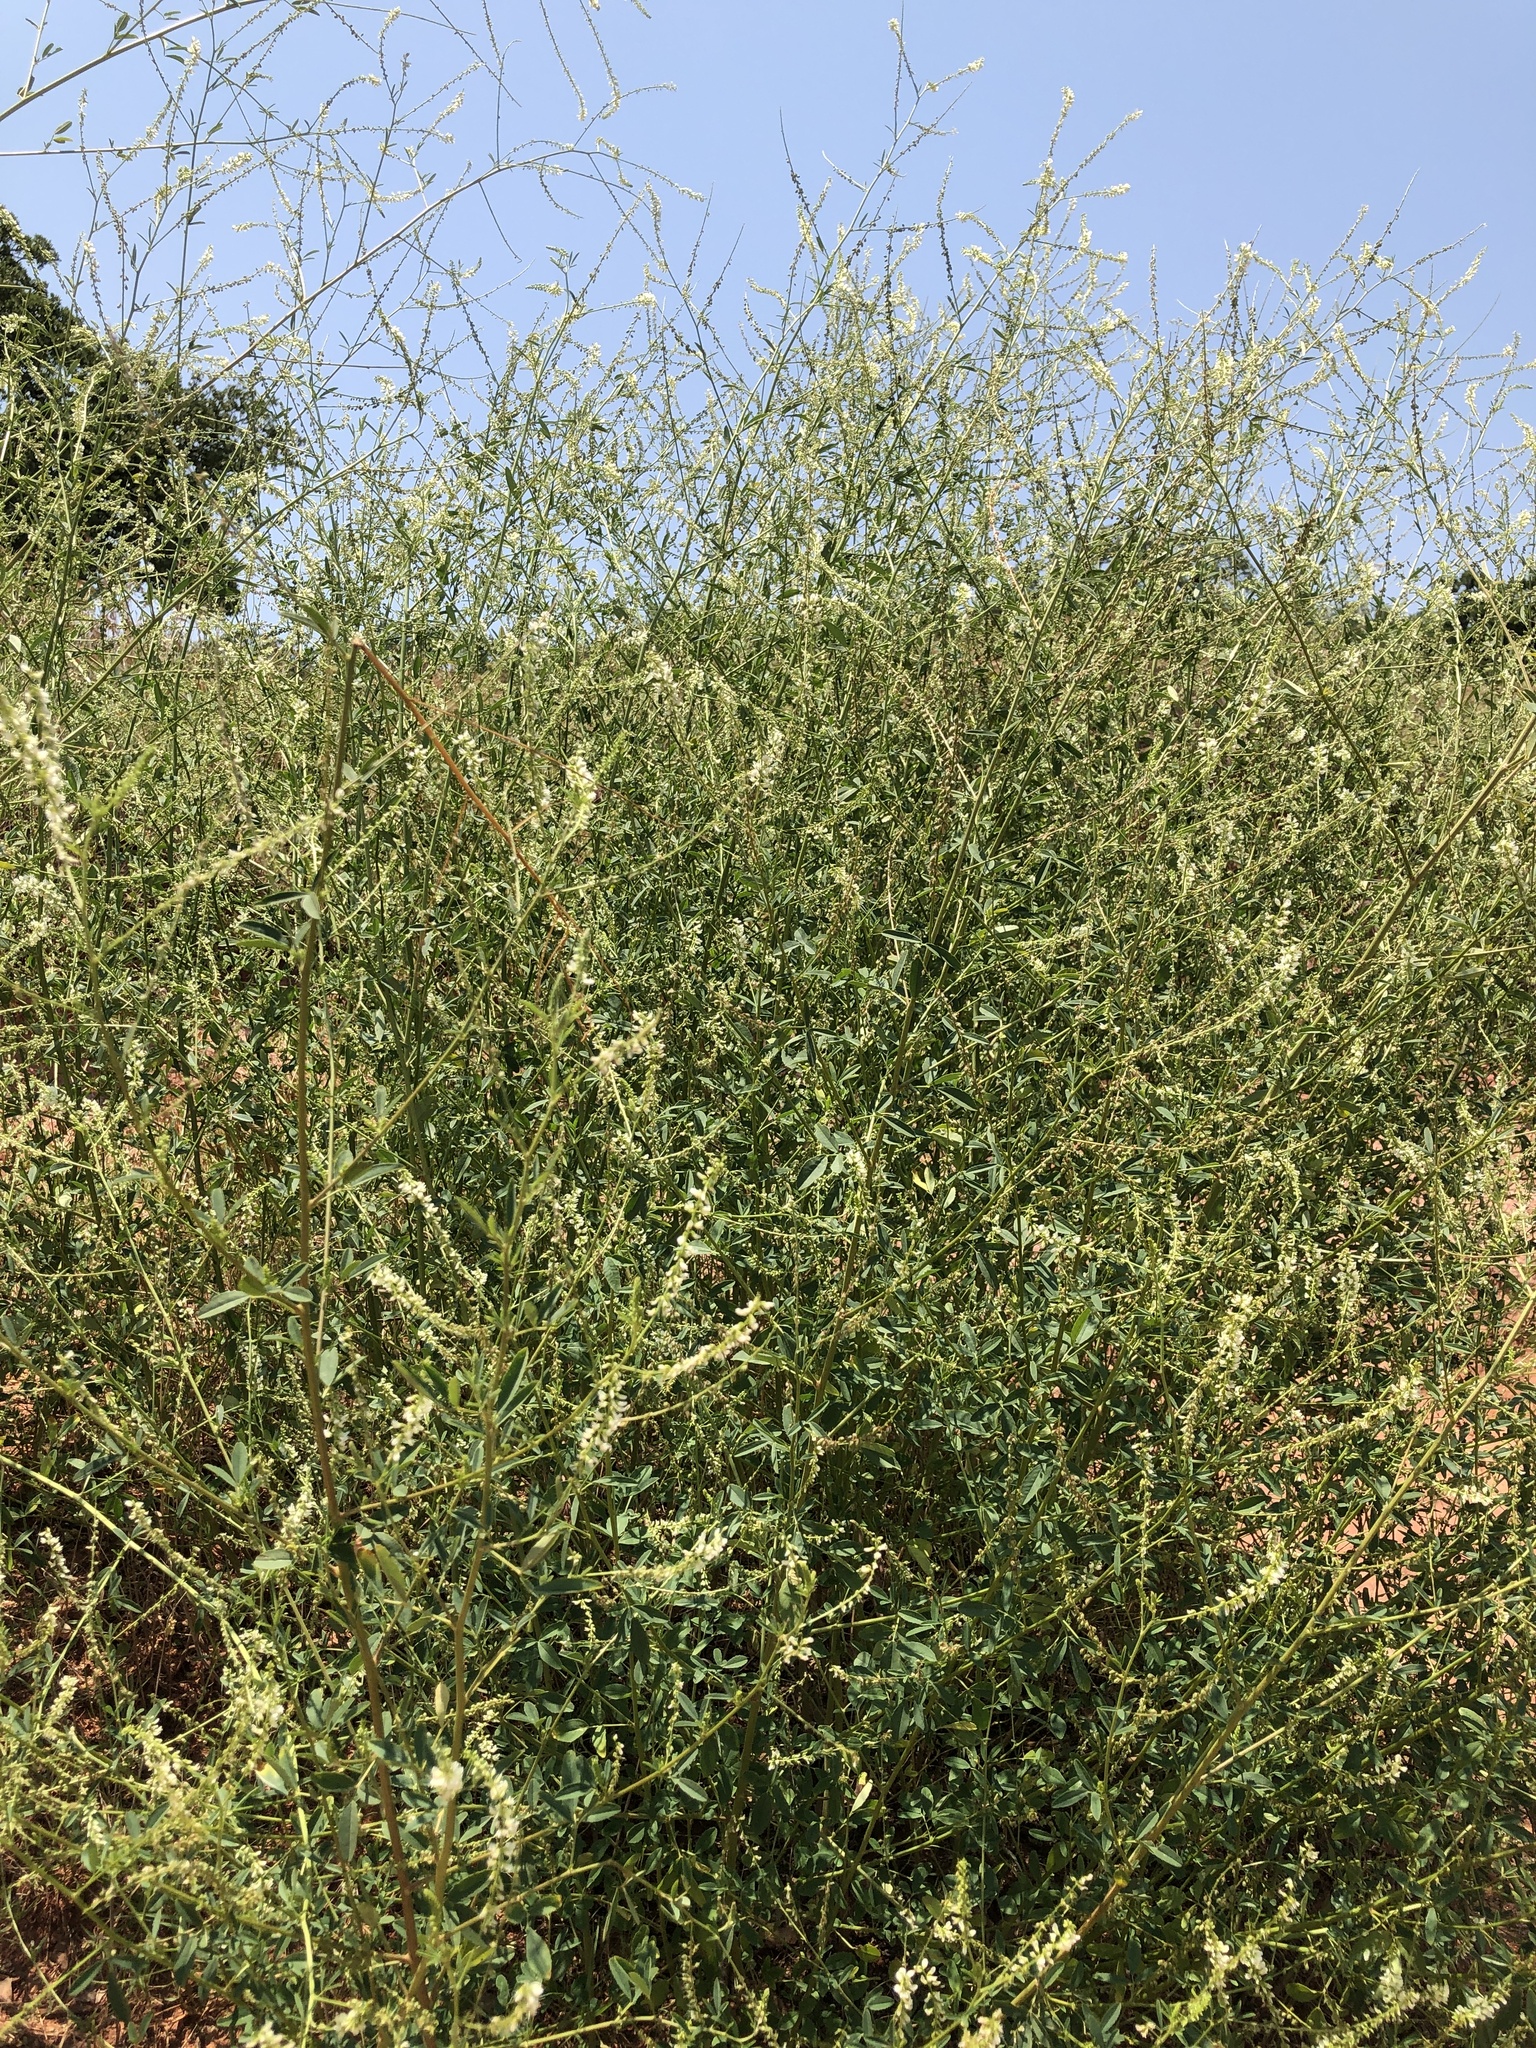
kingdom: Plantae
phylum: Tracheophyta
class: Magnoliopsida
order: Fabales
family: Fabaceae
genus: Melilotus
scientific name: Melilotus albus
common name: White melilot
